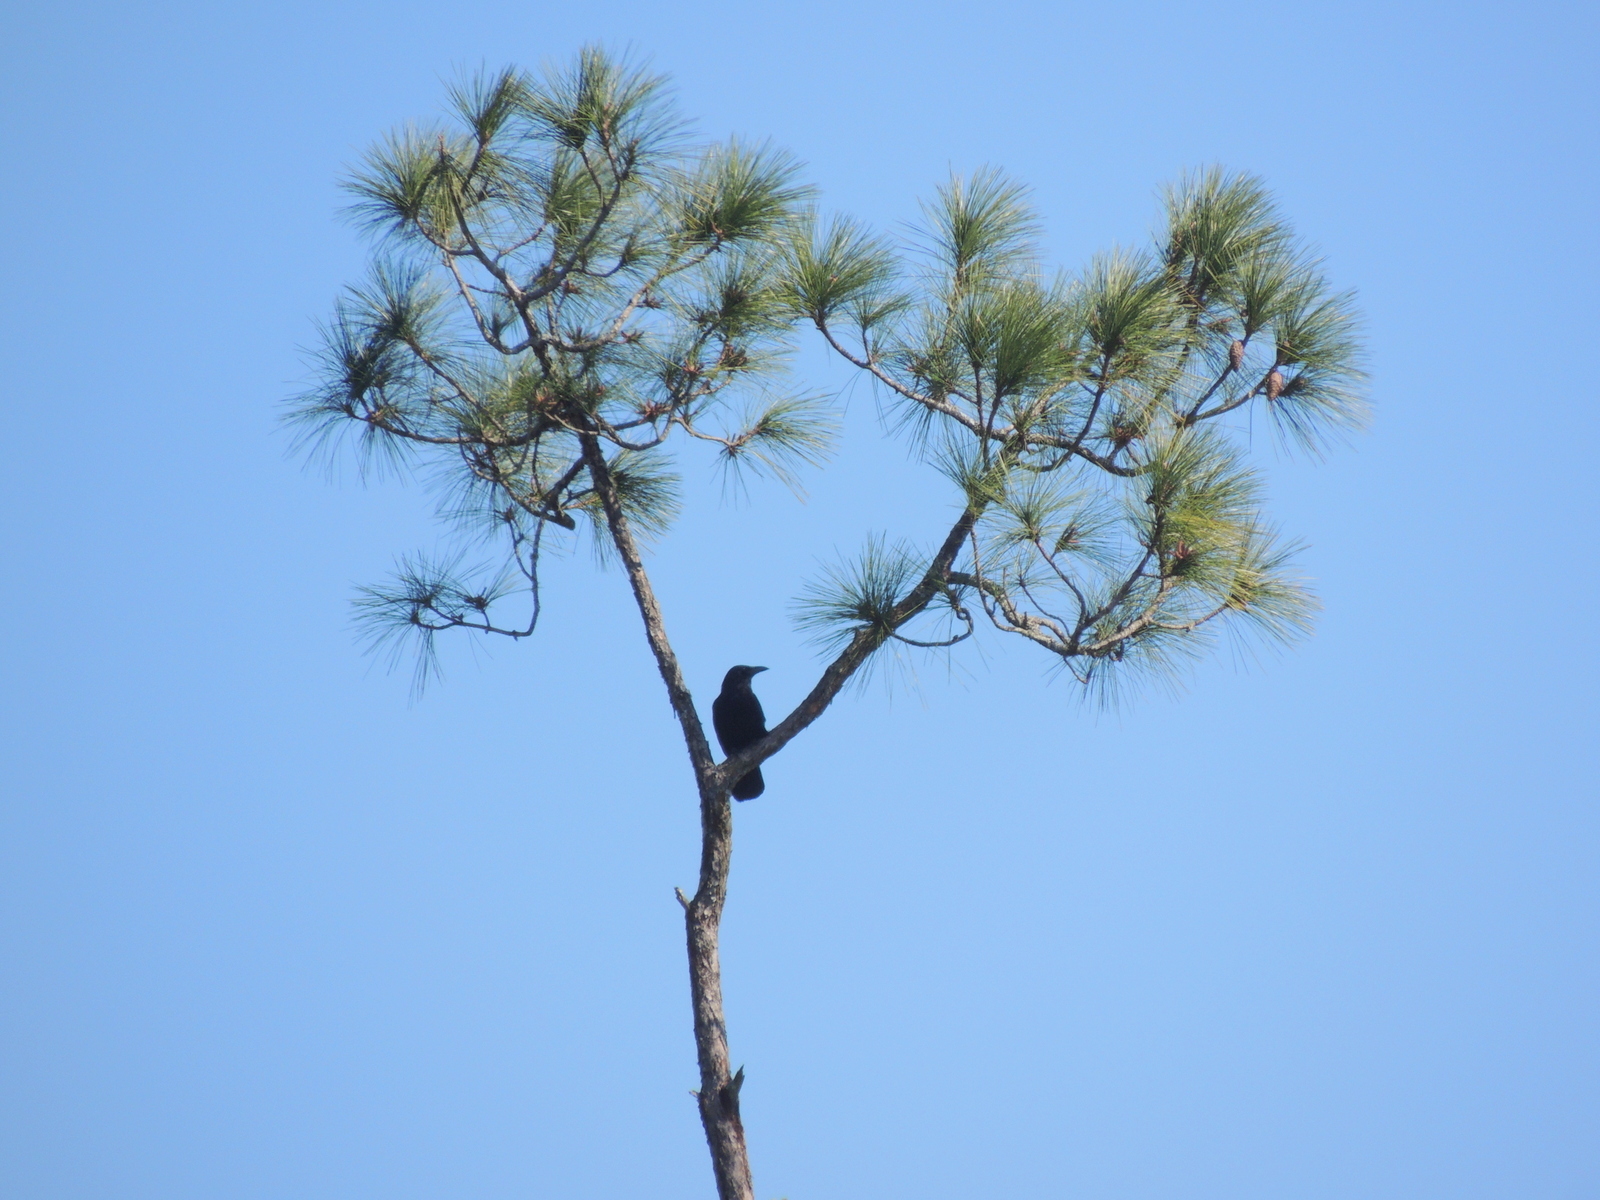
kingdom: Animalia
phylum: Chordata
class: Aves
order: Passeriformes
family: Corvidae
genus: Corvus
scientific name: Corvus
